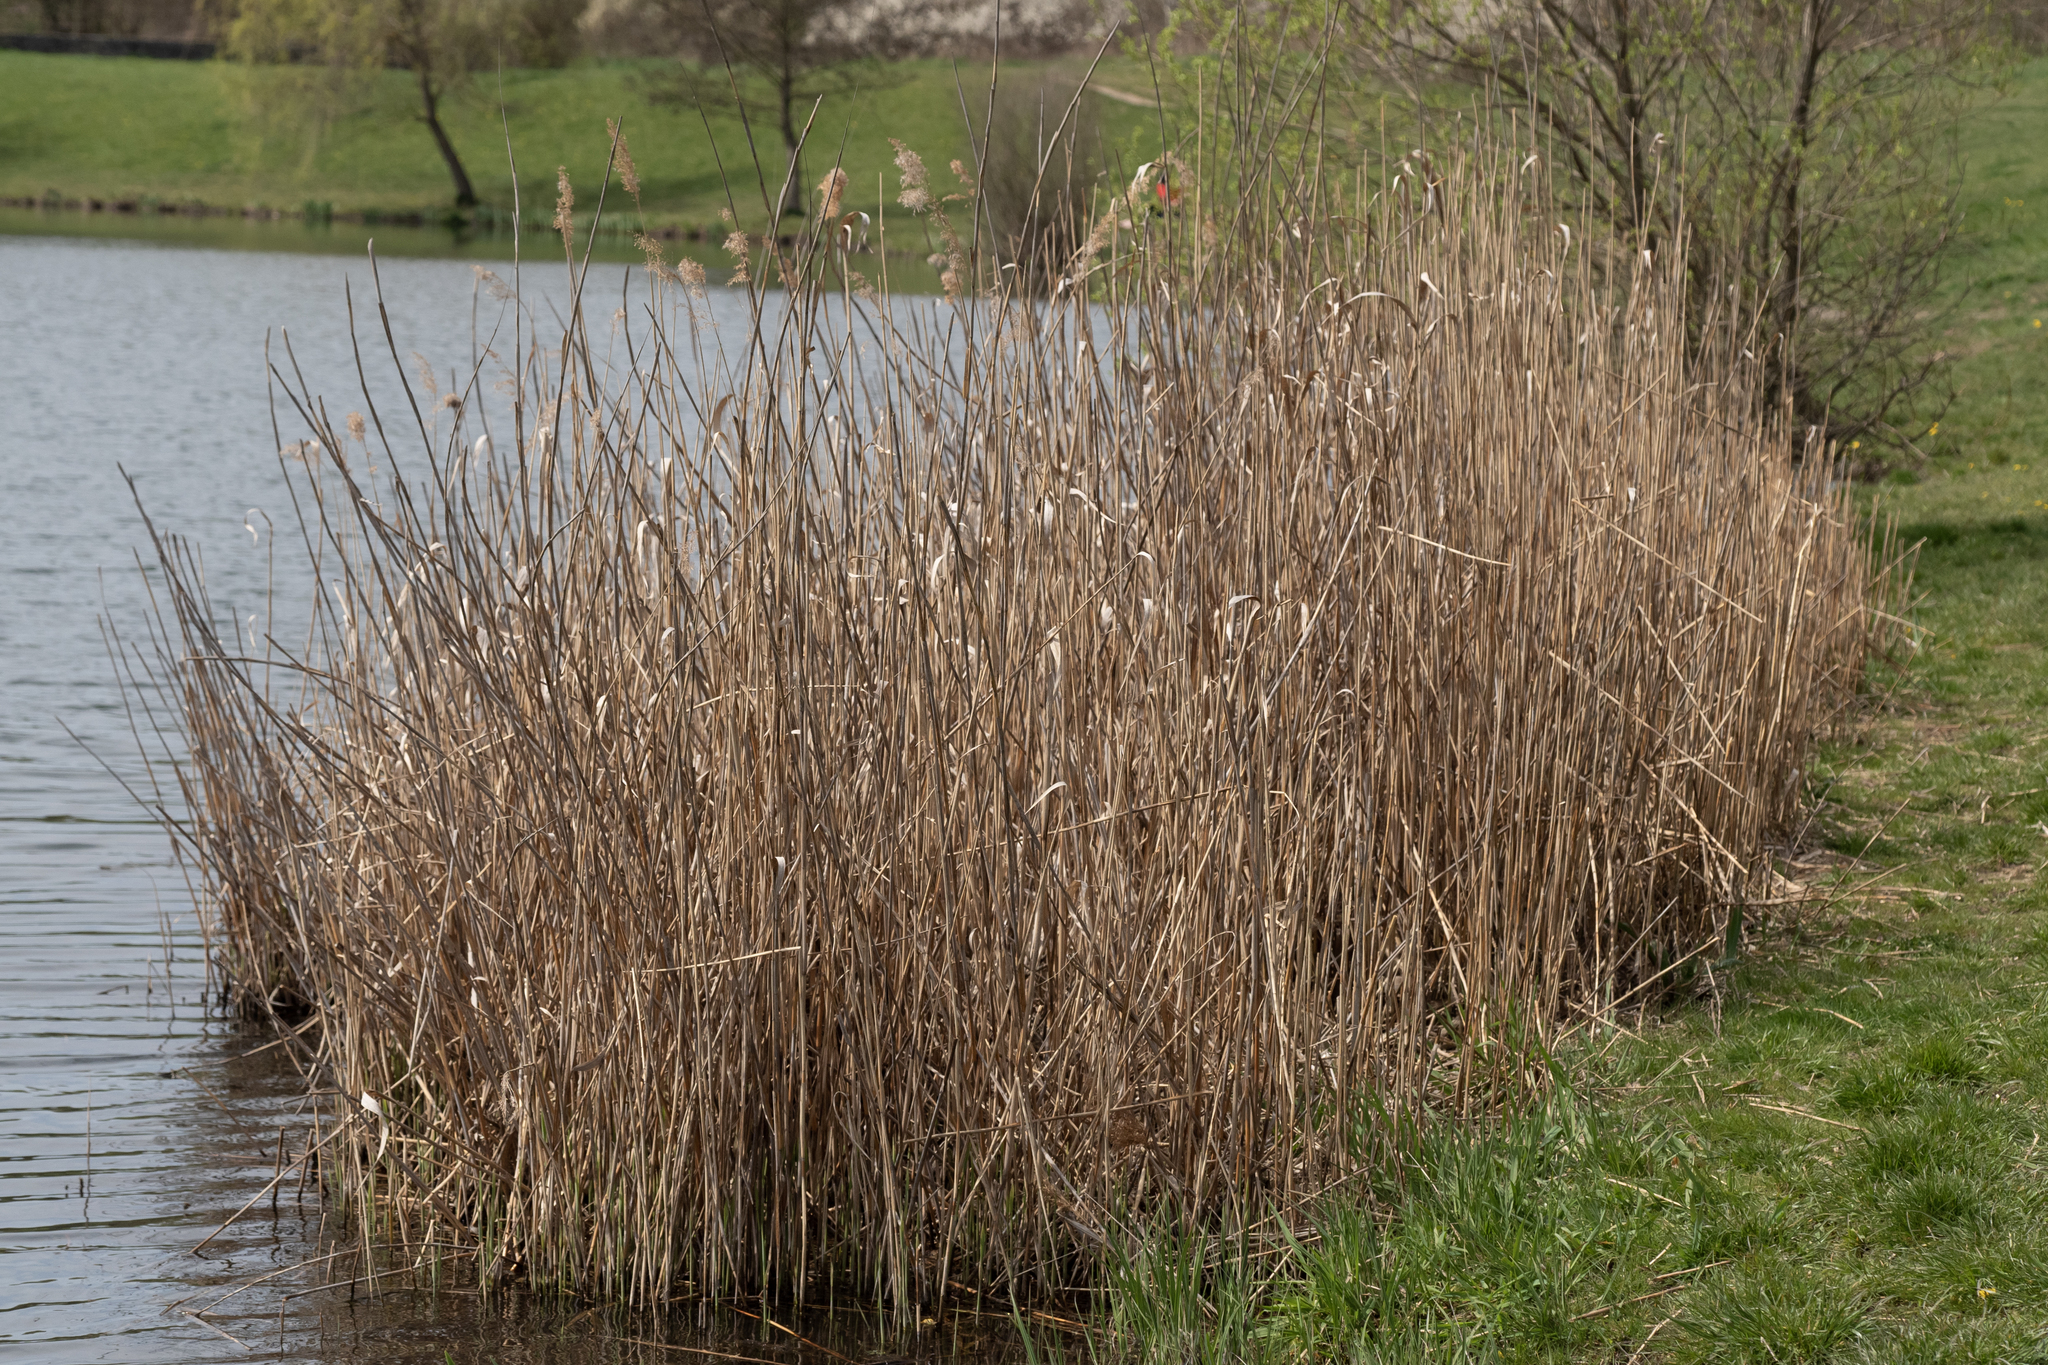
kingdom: Plantae
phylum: Tracheophyta
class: Liliopsida
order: Poales
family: Poaceae
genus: Phragmites
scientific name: Phragmites australis
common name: Common reed
